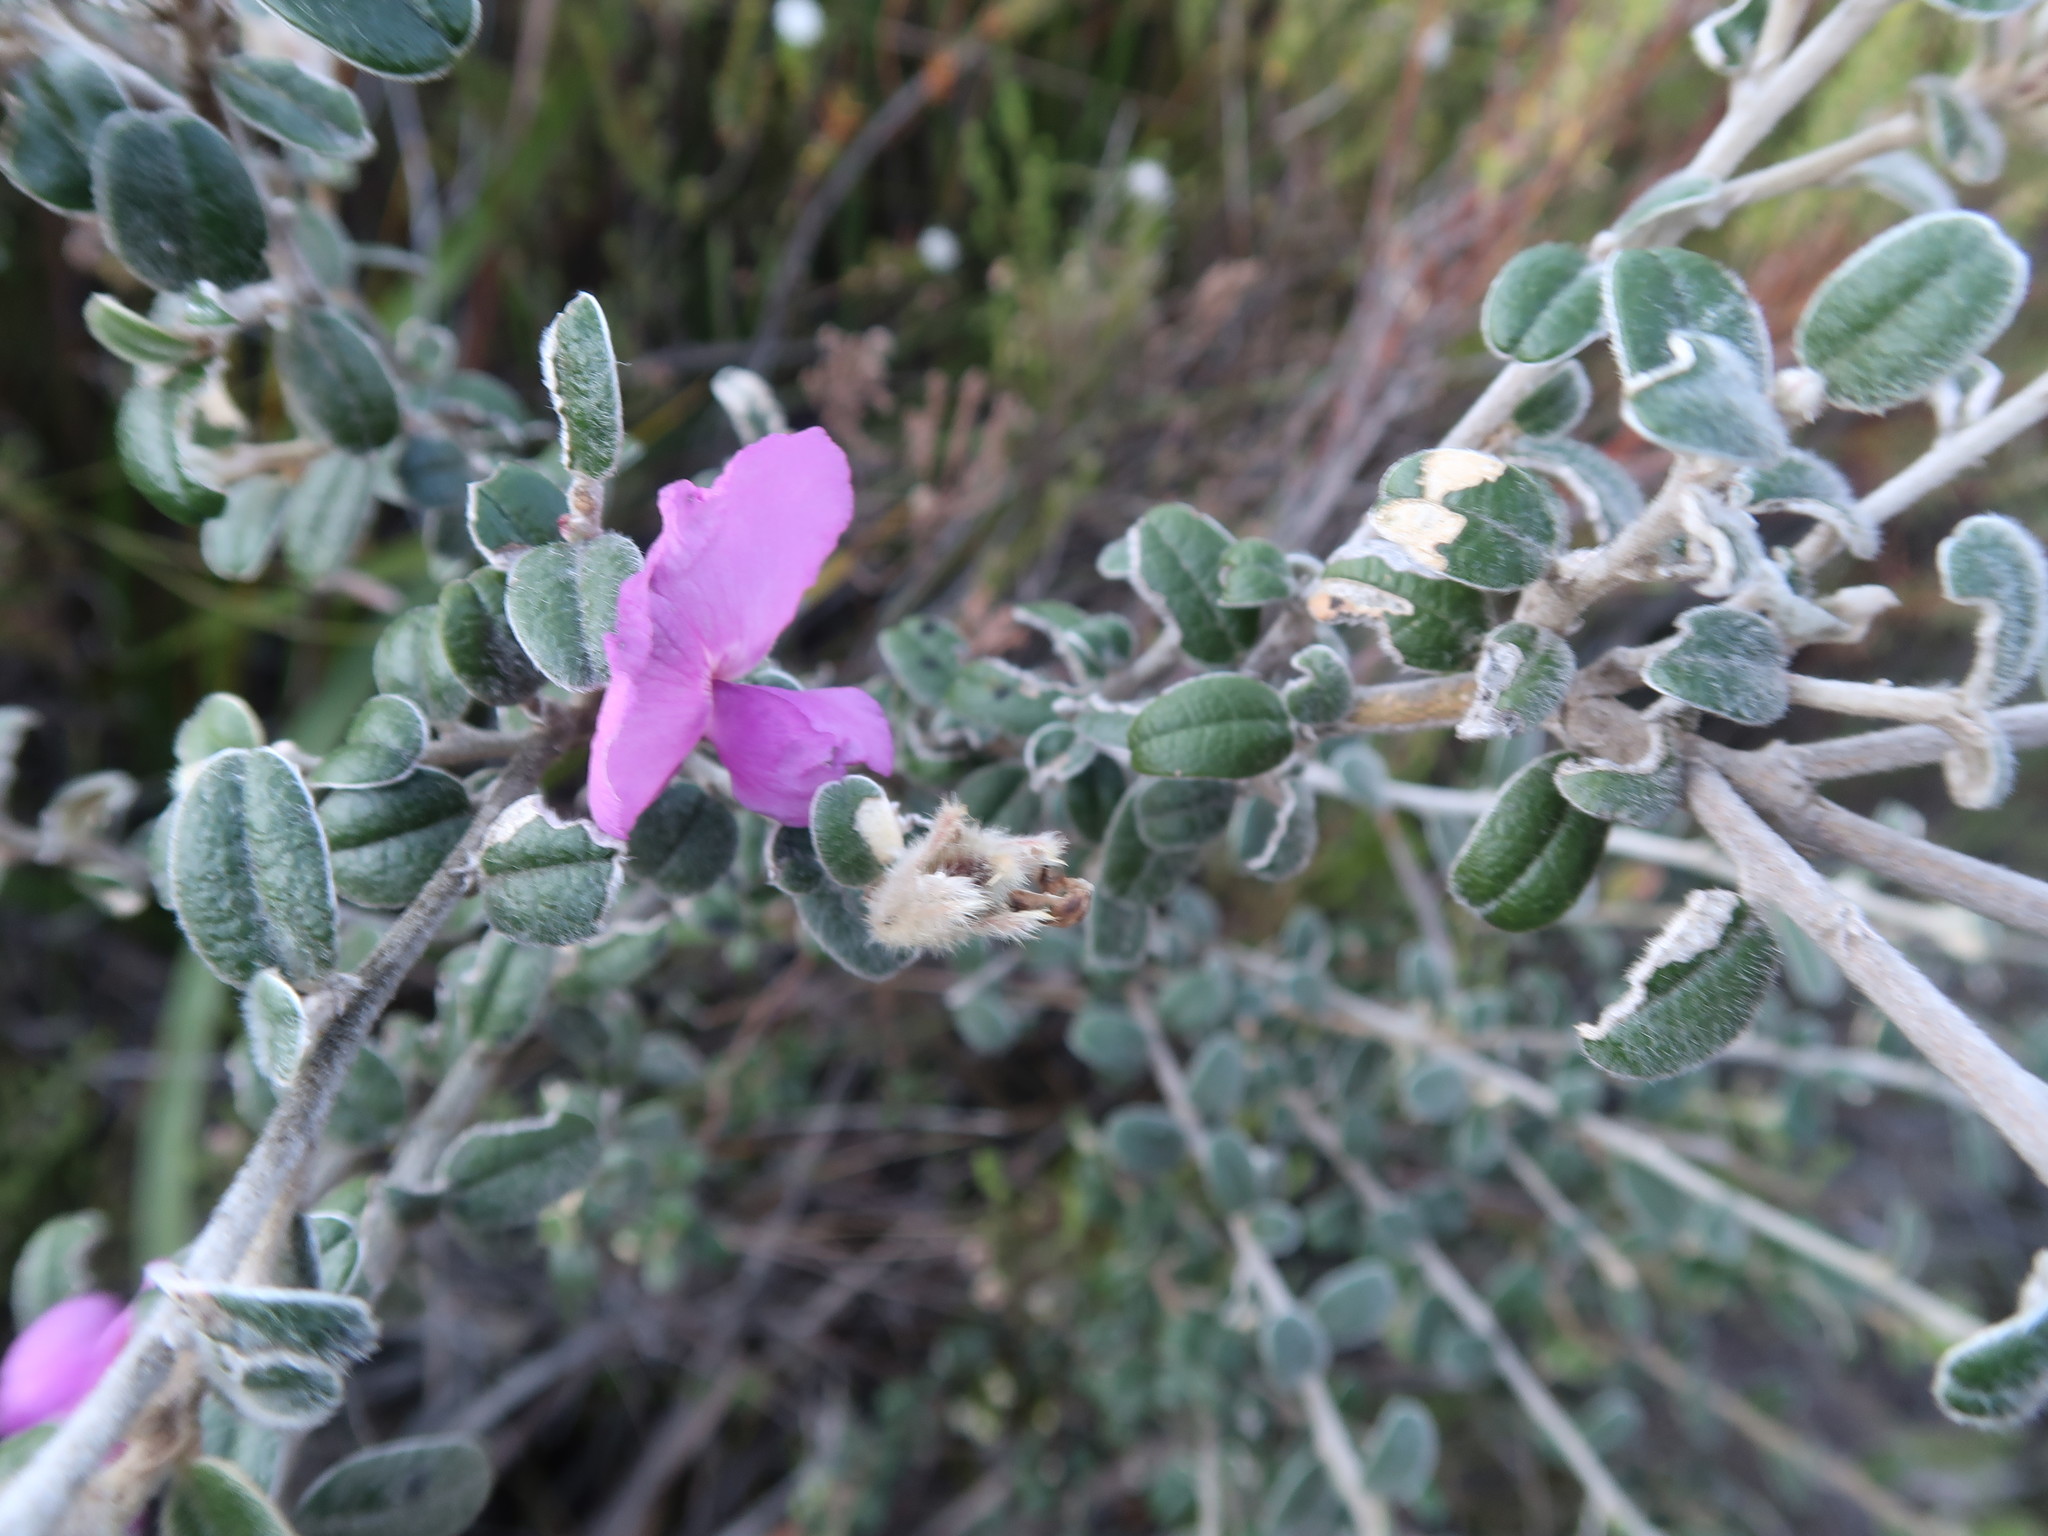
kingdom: Plantae
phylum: Tracheophyta
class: Magnoliopsida
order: Fabales
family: Fabaceae
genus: Podalyria
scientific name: Podalyria burchellii
